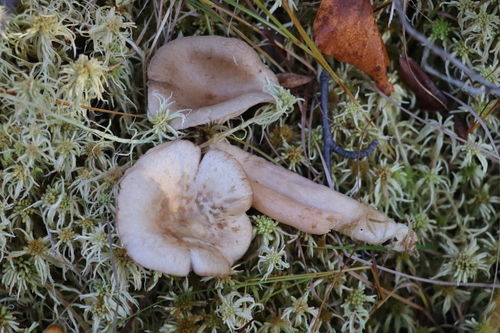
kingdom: Fungi
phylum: Basidiomycota
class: Agaricomycetes
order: Russulales
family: Russulaceae
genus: Lactarius
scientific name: Lactarius vietus
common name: Grey milk-cap
